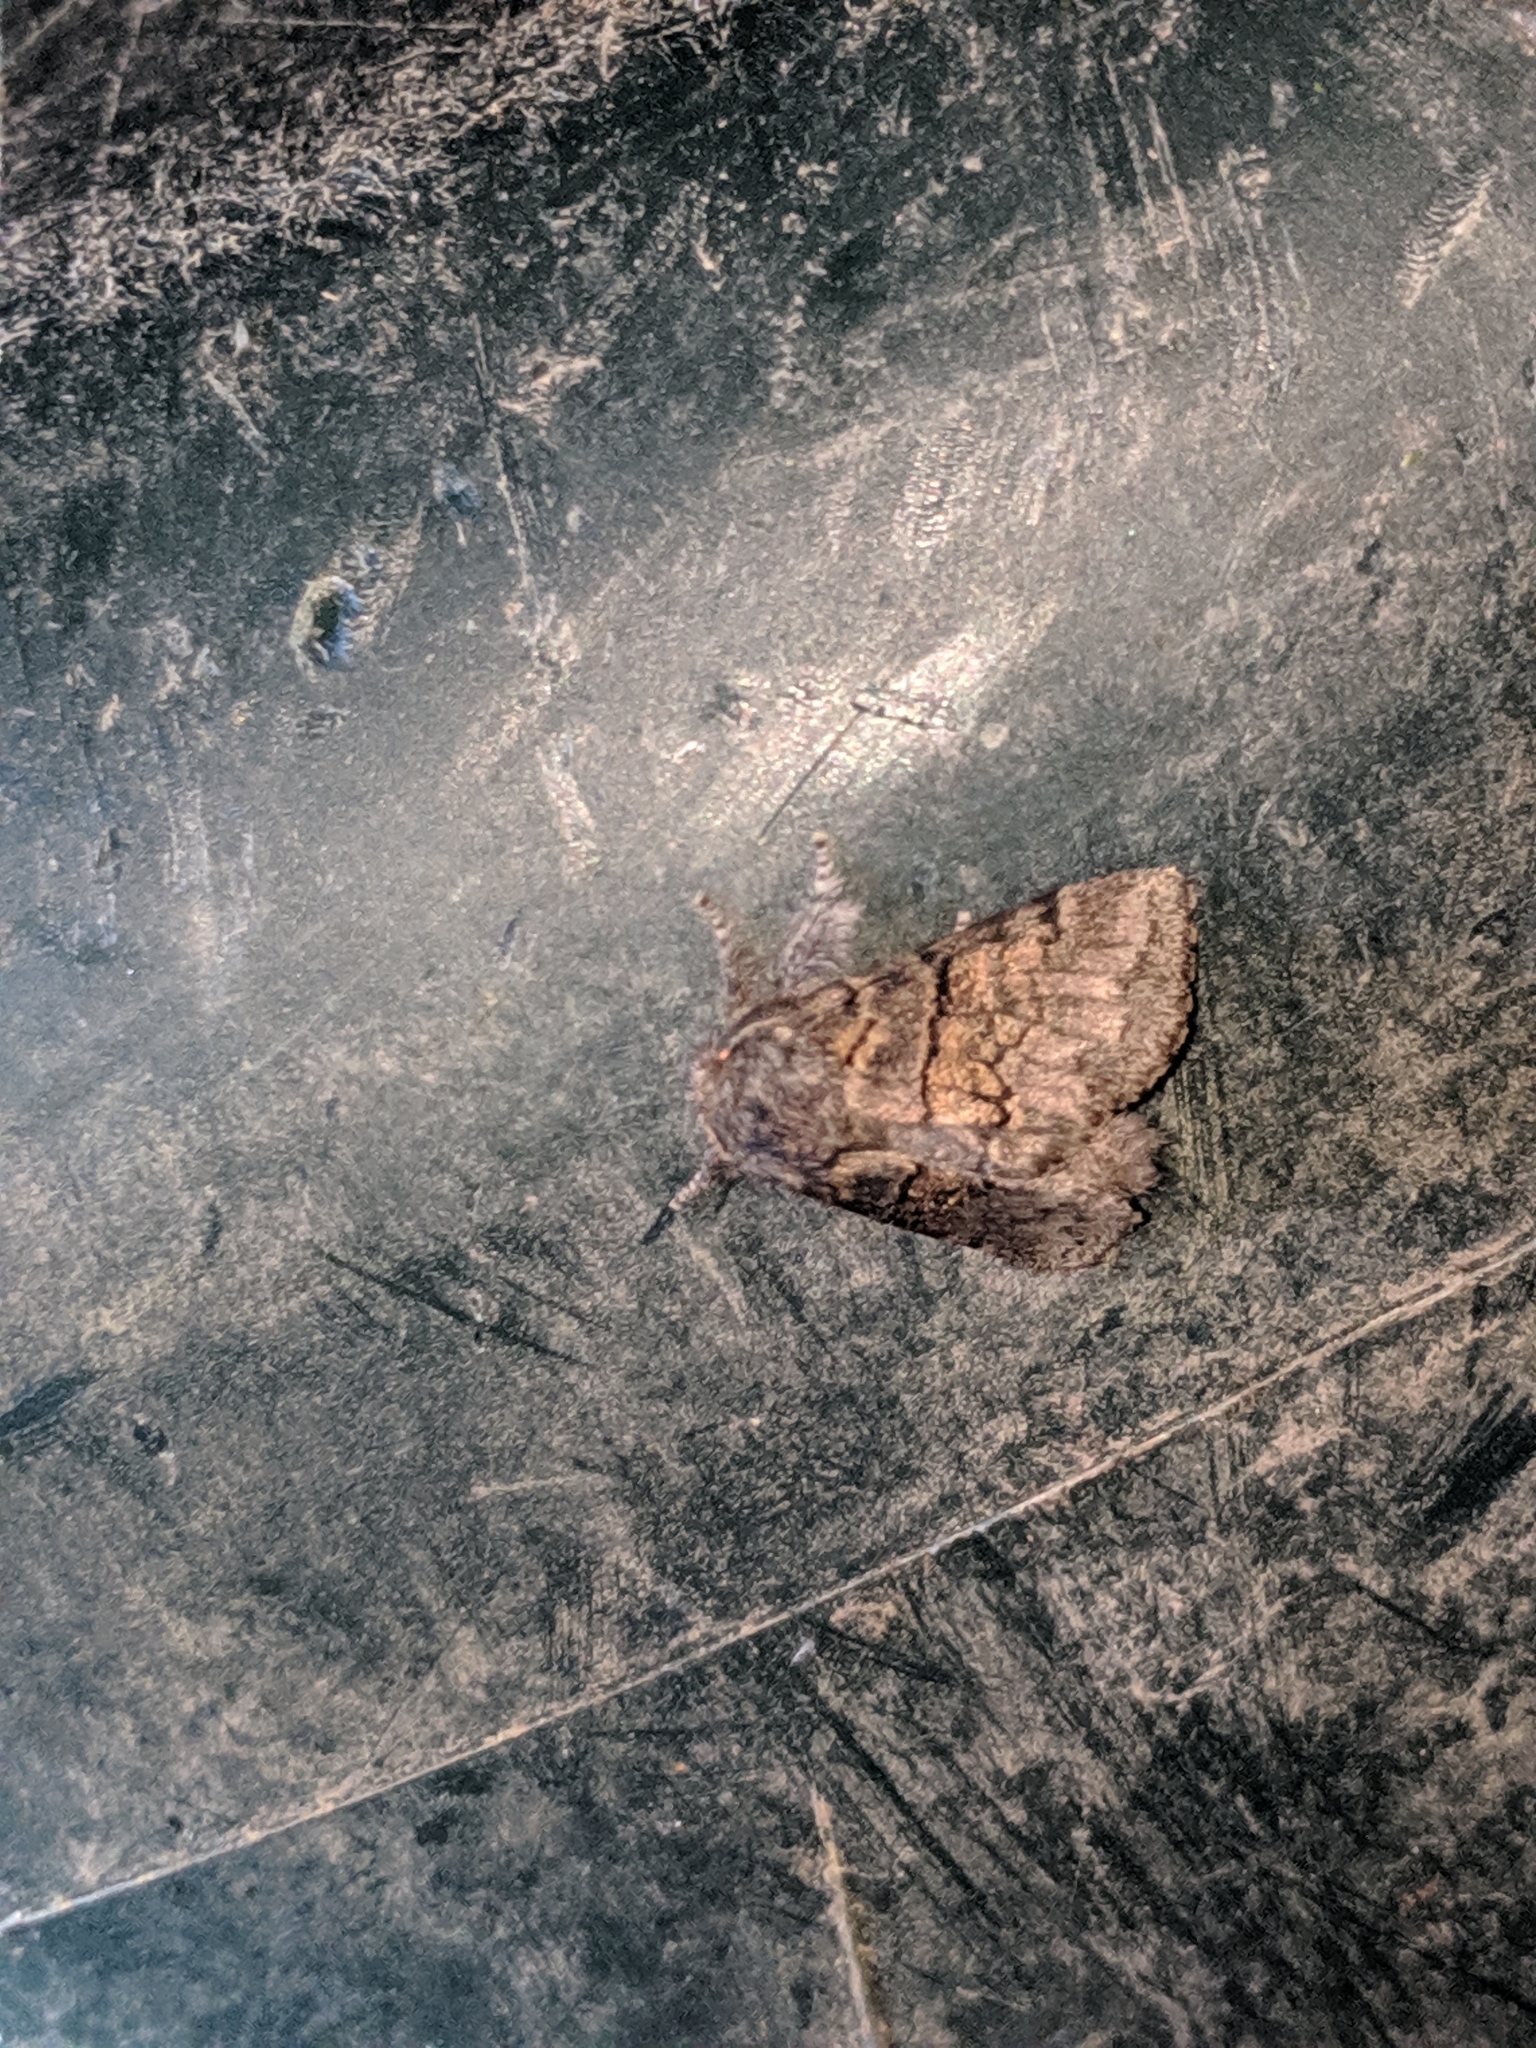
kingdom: Animalia
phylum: Arthropoda
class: Insecta
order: Lepidoptera
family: Notodontidae
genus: Gluphisia
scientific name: Gluphisia septentrionis
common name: Common gluphisia
